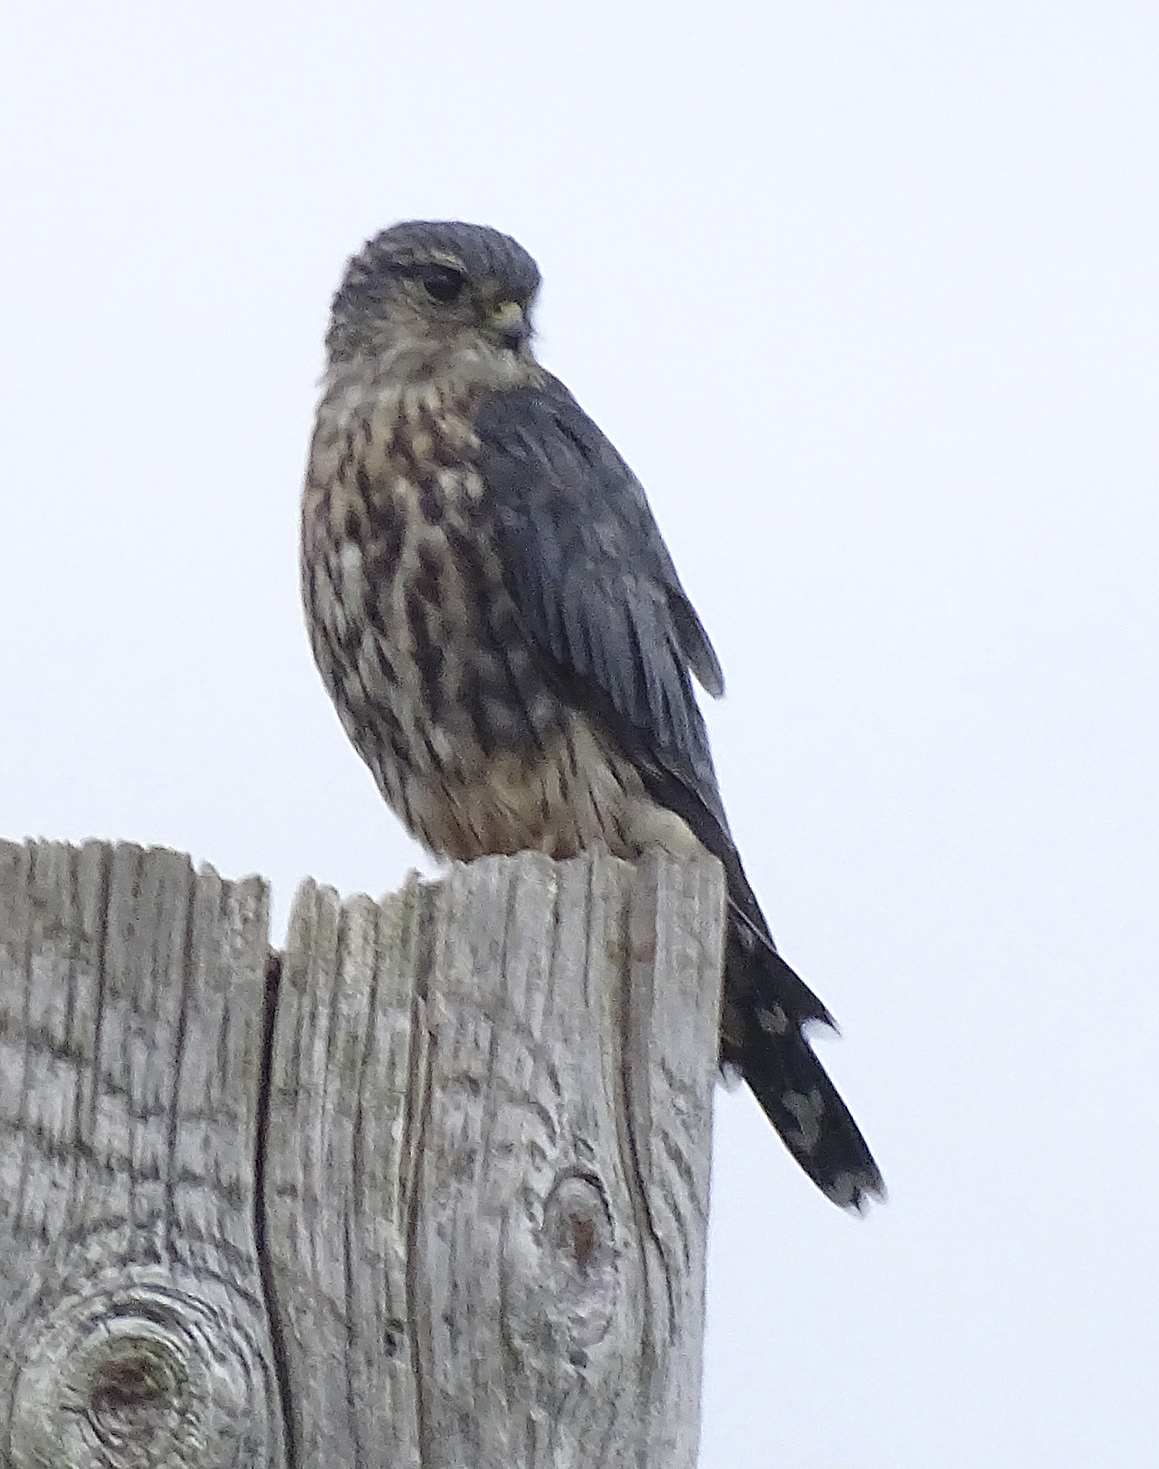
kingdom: Animalia
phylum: Chordata
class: Aves
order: Falconiformes
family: Falconidae
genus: Falco
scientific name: Falco columbarius
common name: Merlin
